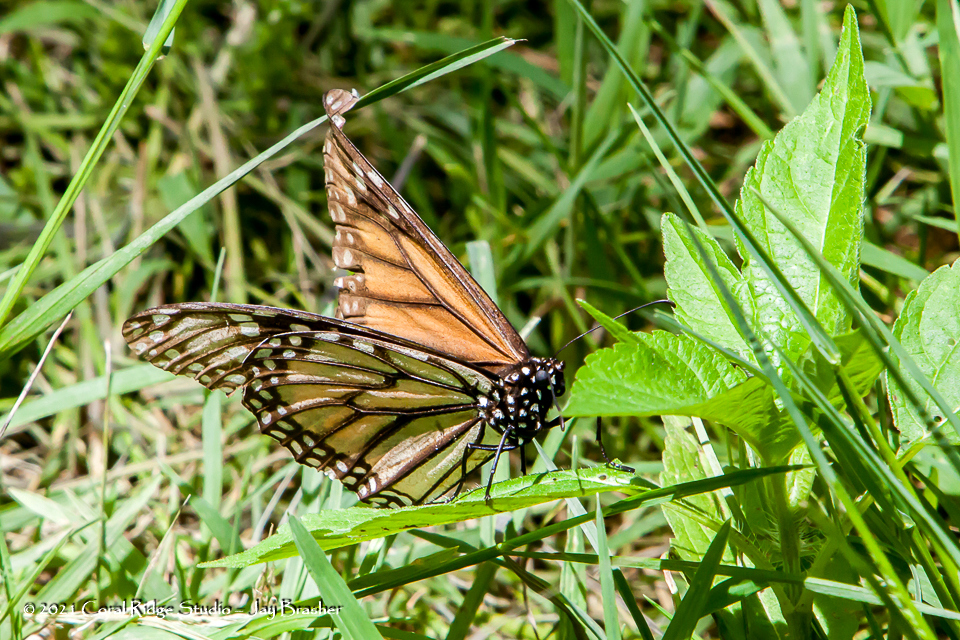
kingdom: Animalia
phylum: Arthropoda
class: Insecta
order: Lepidoptera
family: Nymphalidae
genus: Danaus
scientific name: Danaus plexippus
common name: Monarch
